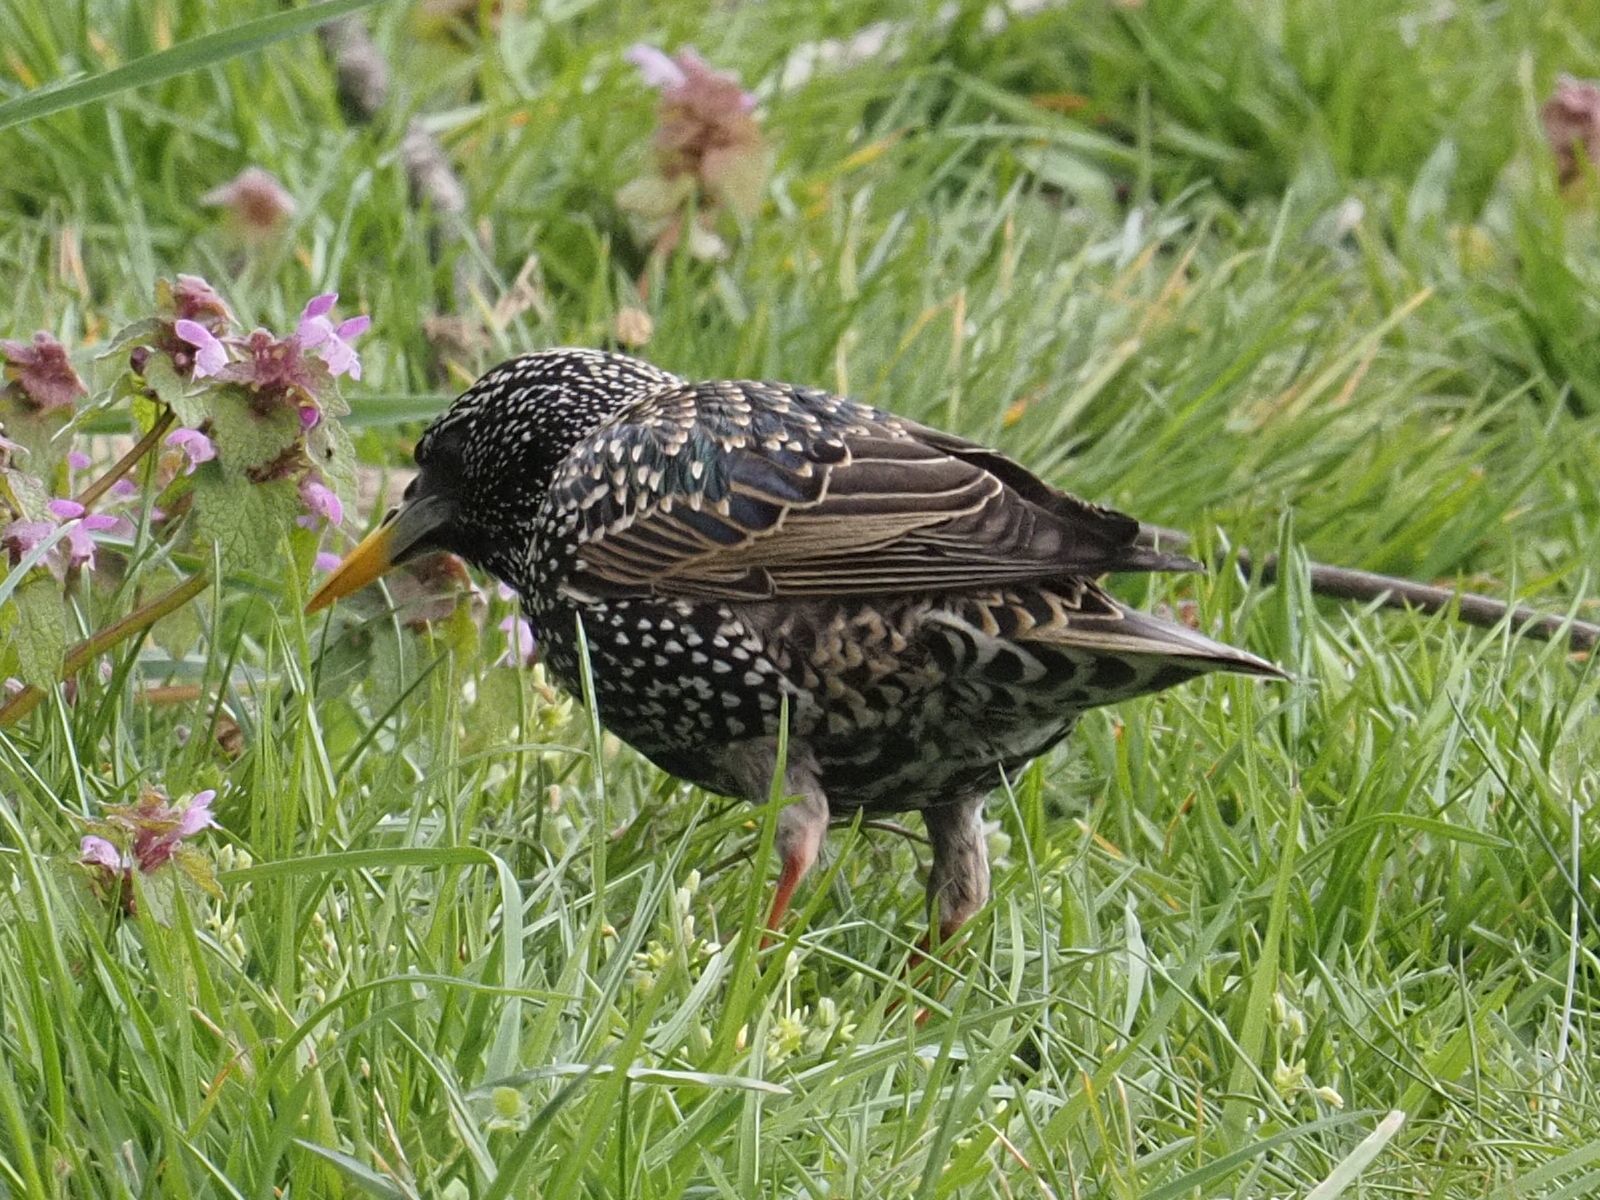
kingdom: Animalia
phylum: Chordata
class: Aves
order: Passeriformes
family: Sturnidae
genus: Sturnus
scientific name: Sturnus vulgaris
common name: Common starling
